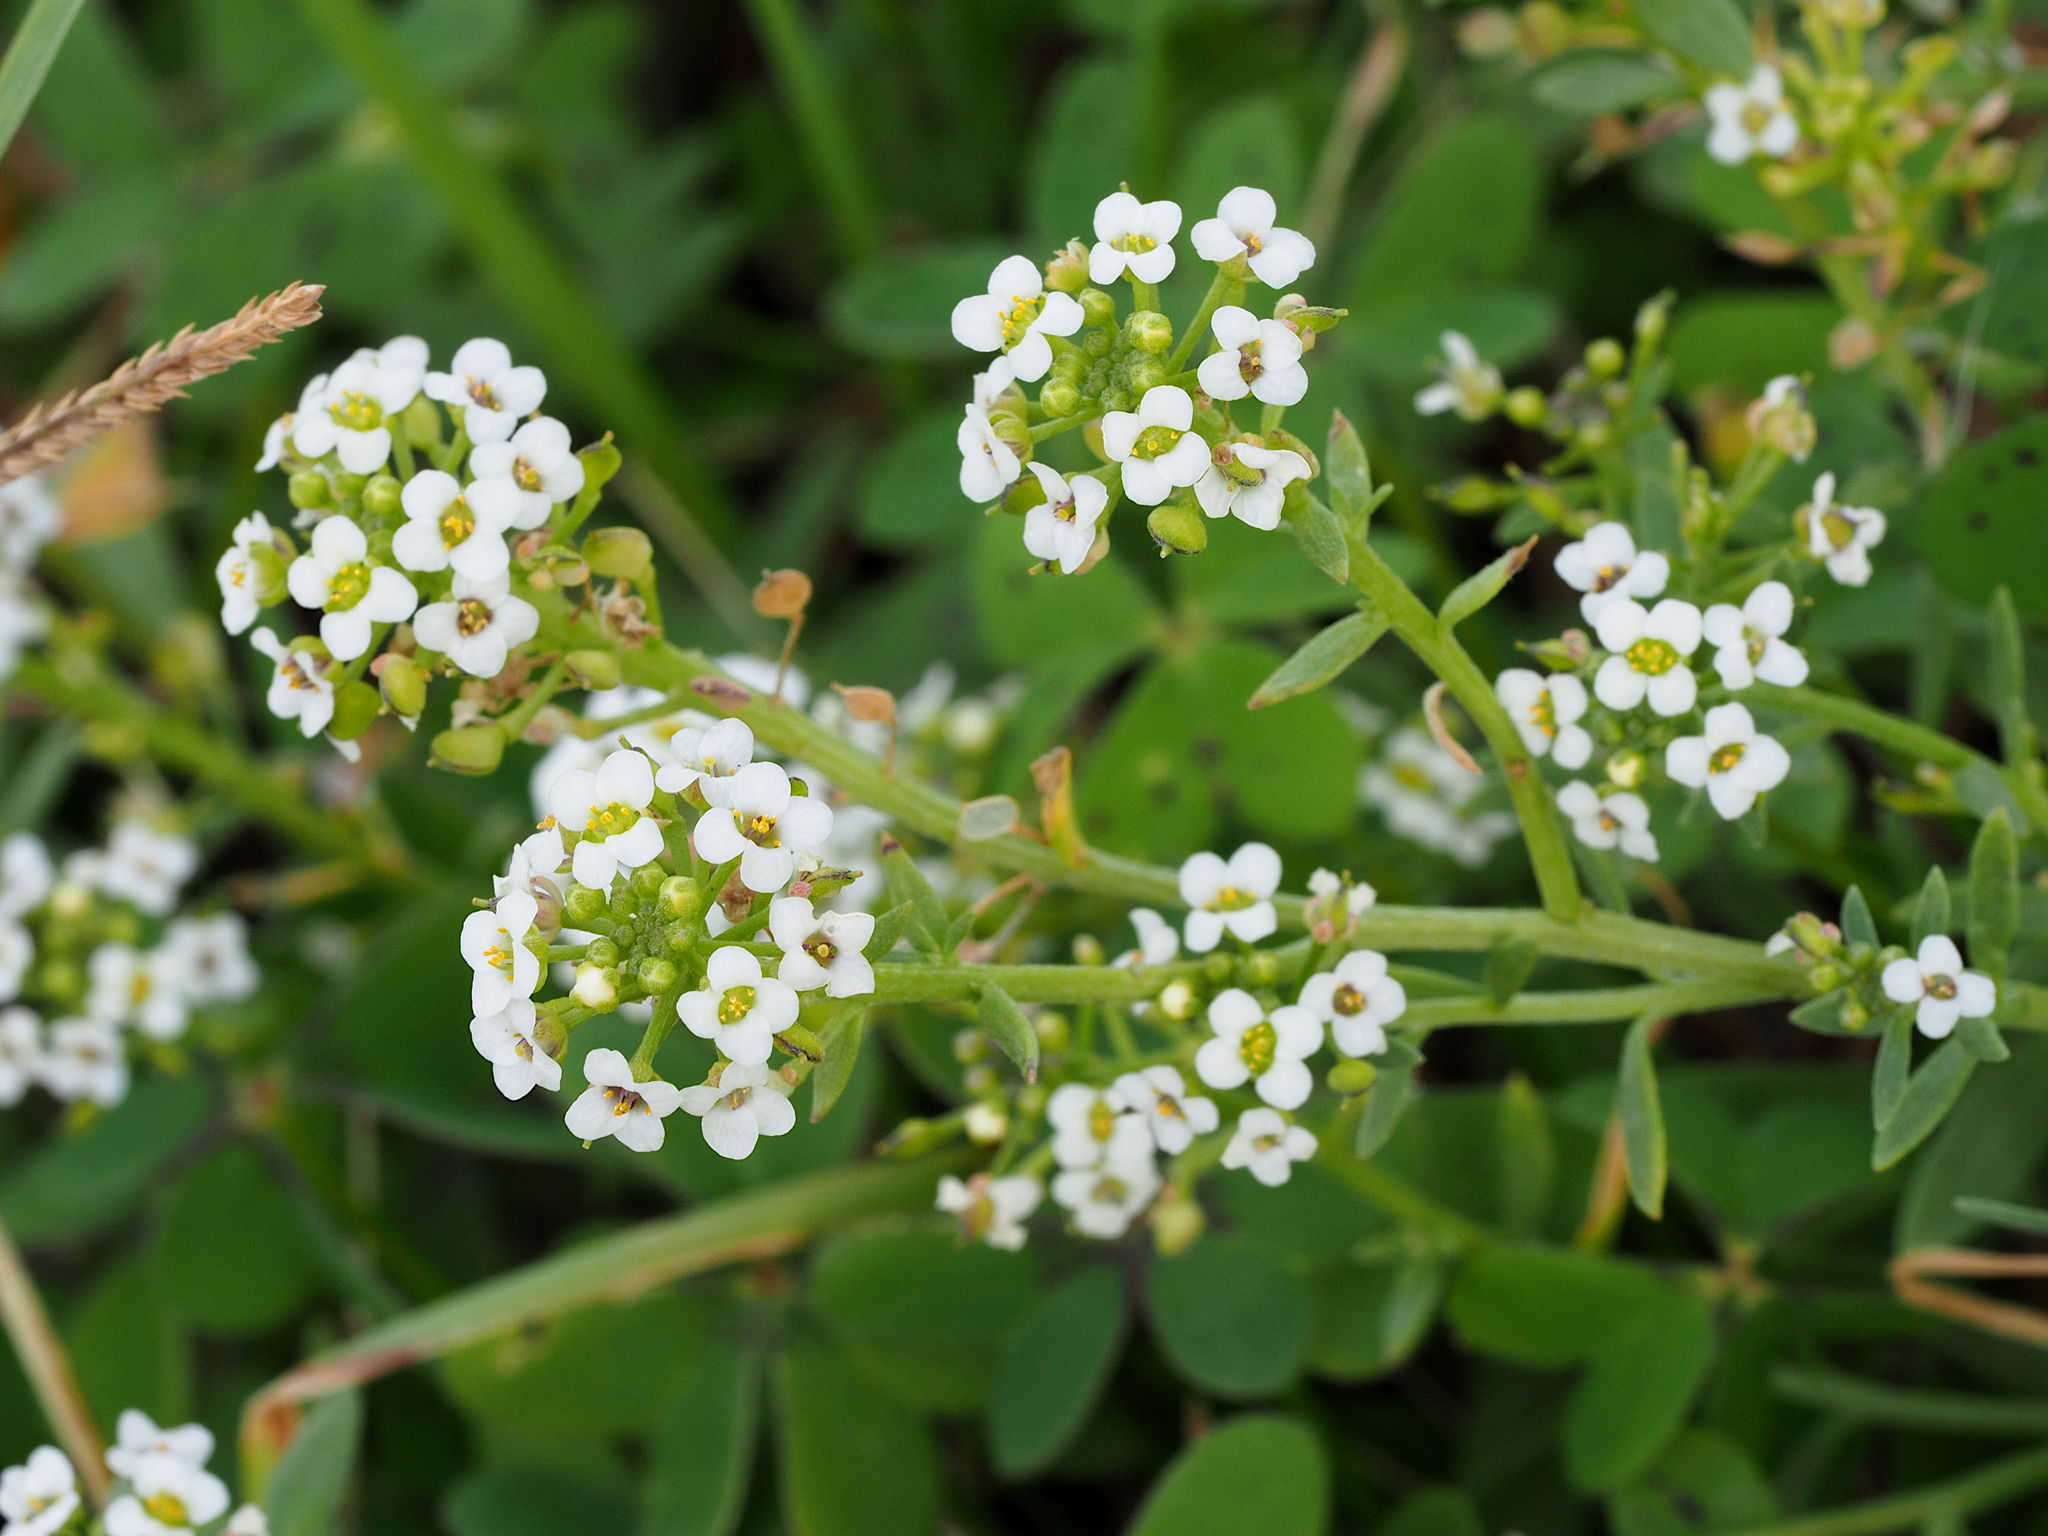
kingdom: Plantae
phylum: Tracheophyta
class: Magnoliopsida
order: Brassicales
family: Brassicaceae
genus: Lobularia
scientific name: Lobularia maritima
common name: Sweet alison
